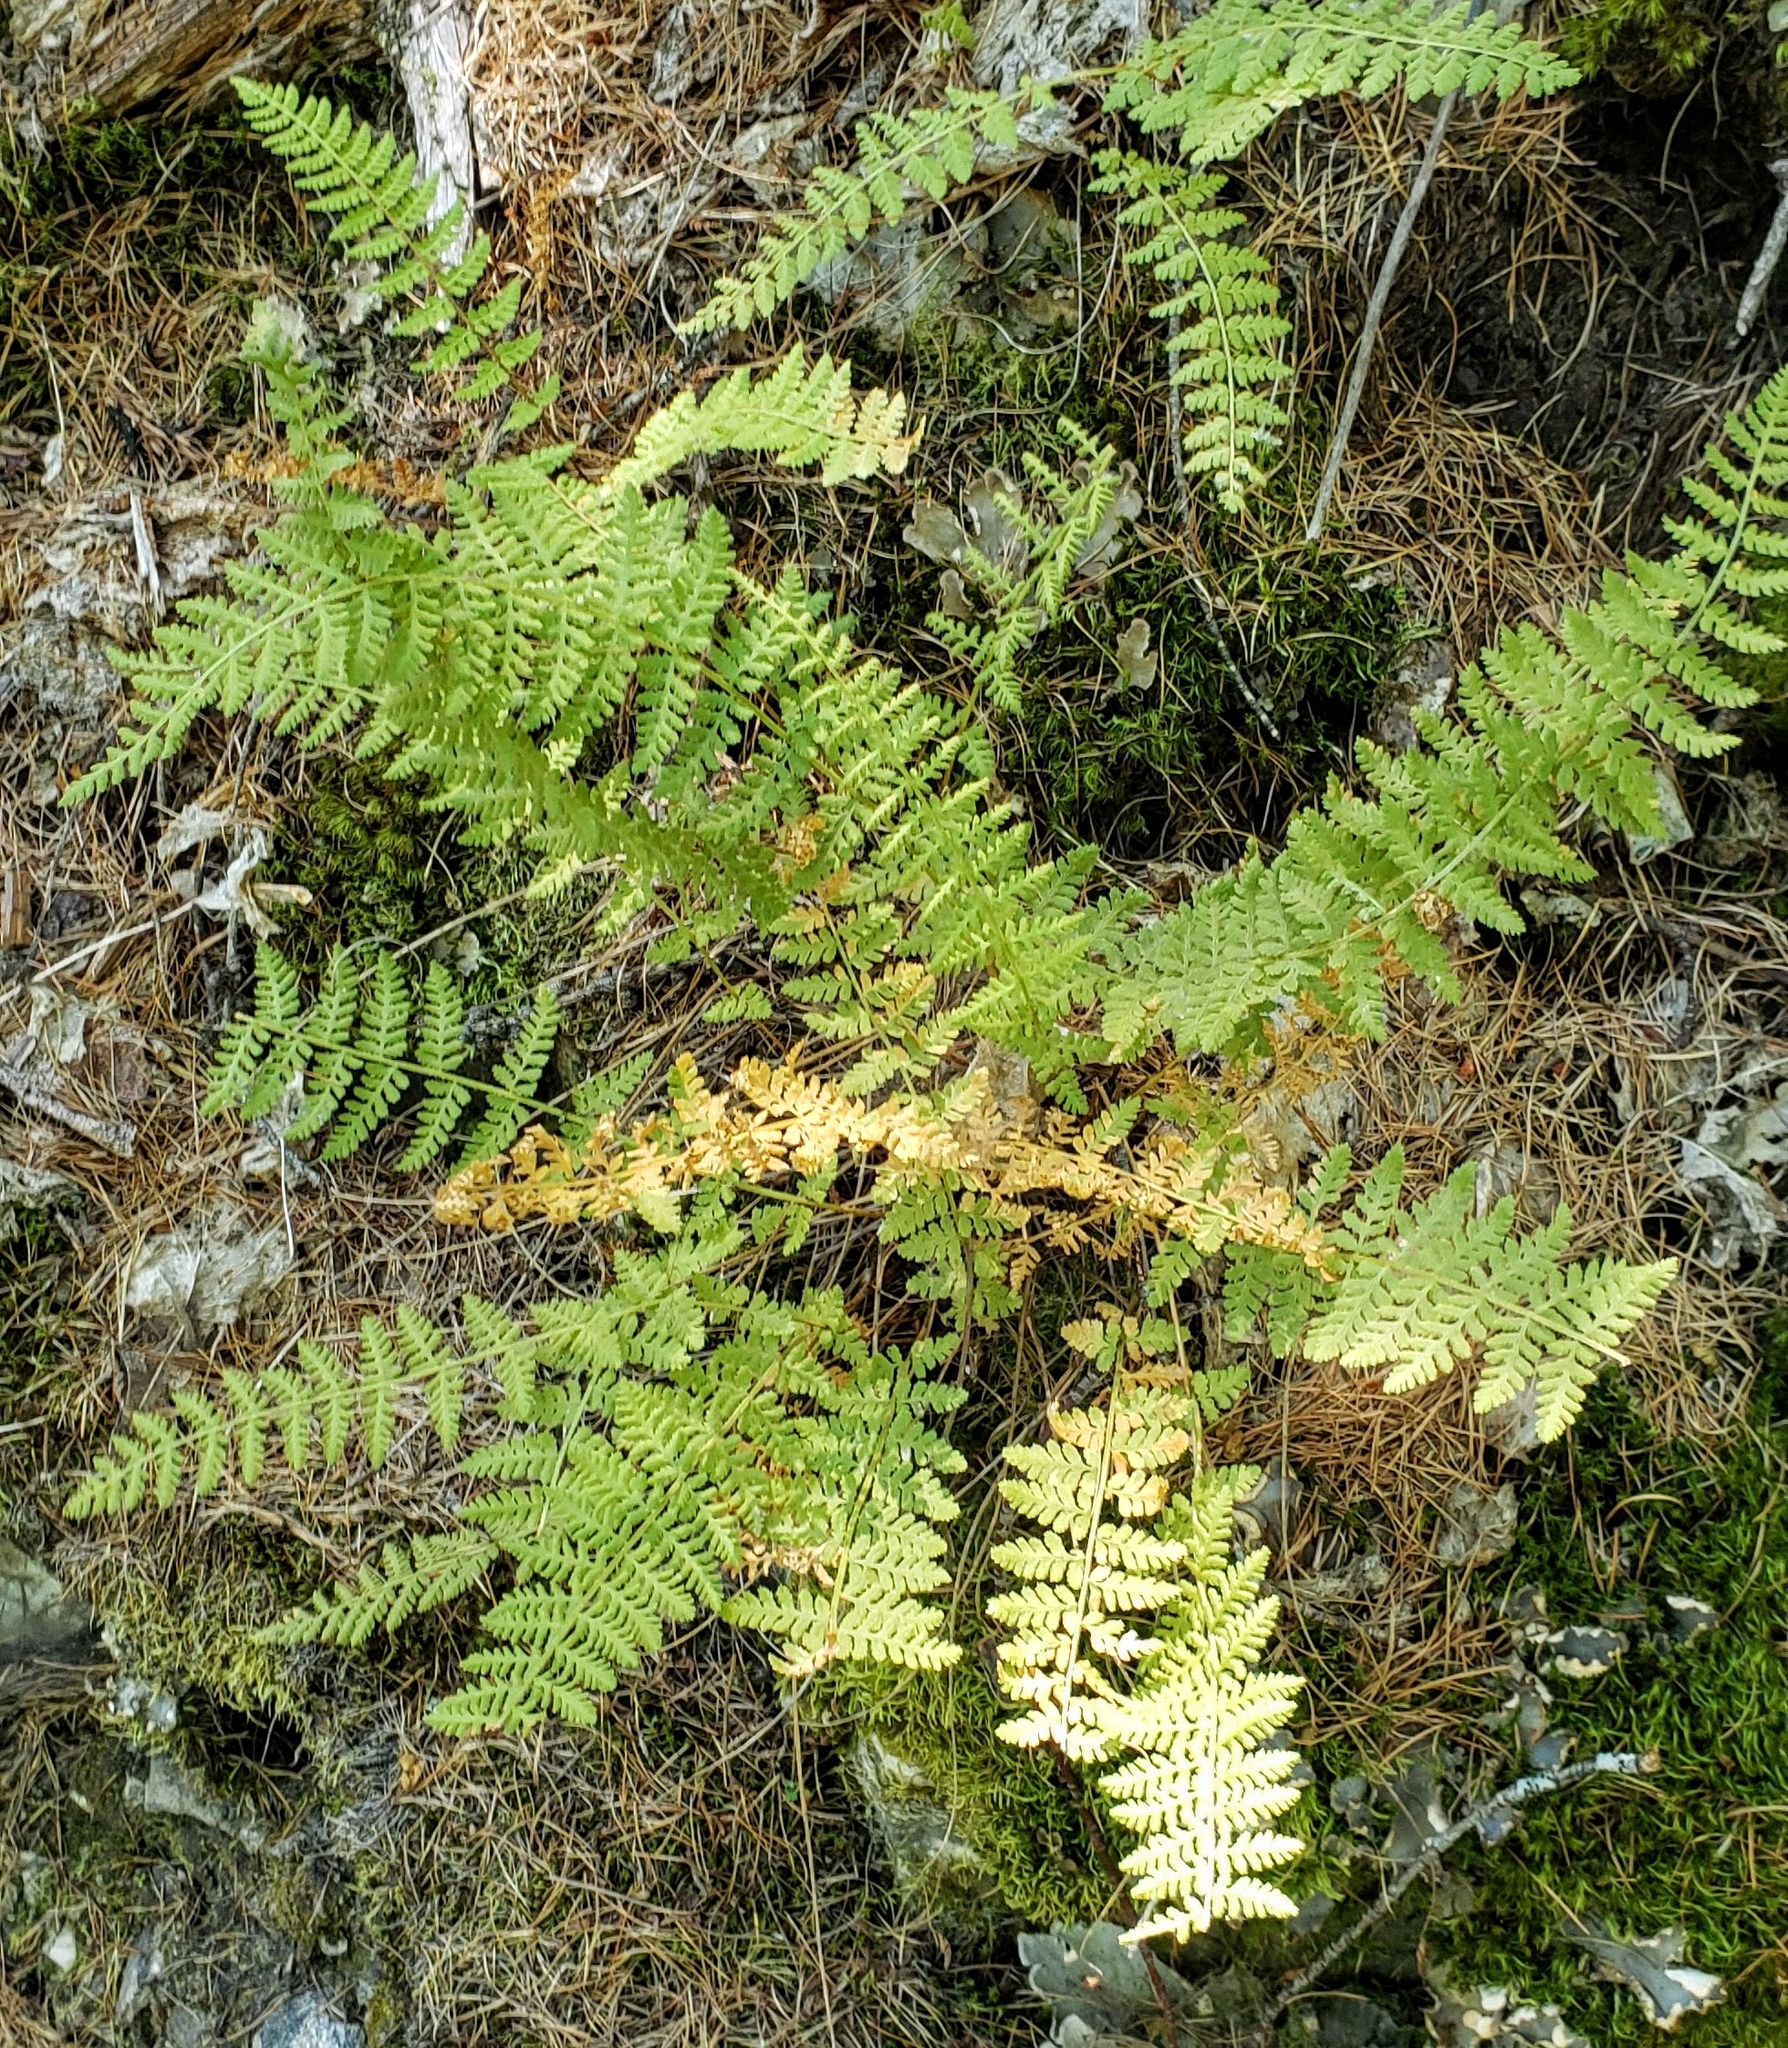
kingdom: Plantae
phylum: Tracheophyta
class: Polypodiopsida
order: Polypodiales
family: Woodsiaceae
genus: Physematium
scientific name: Physematium scopulinum
